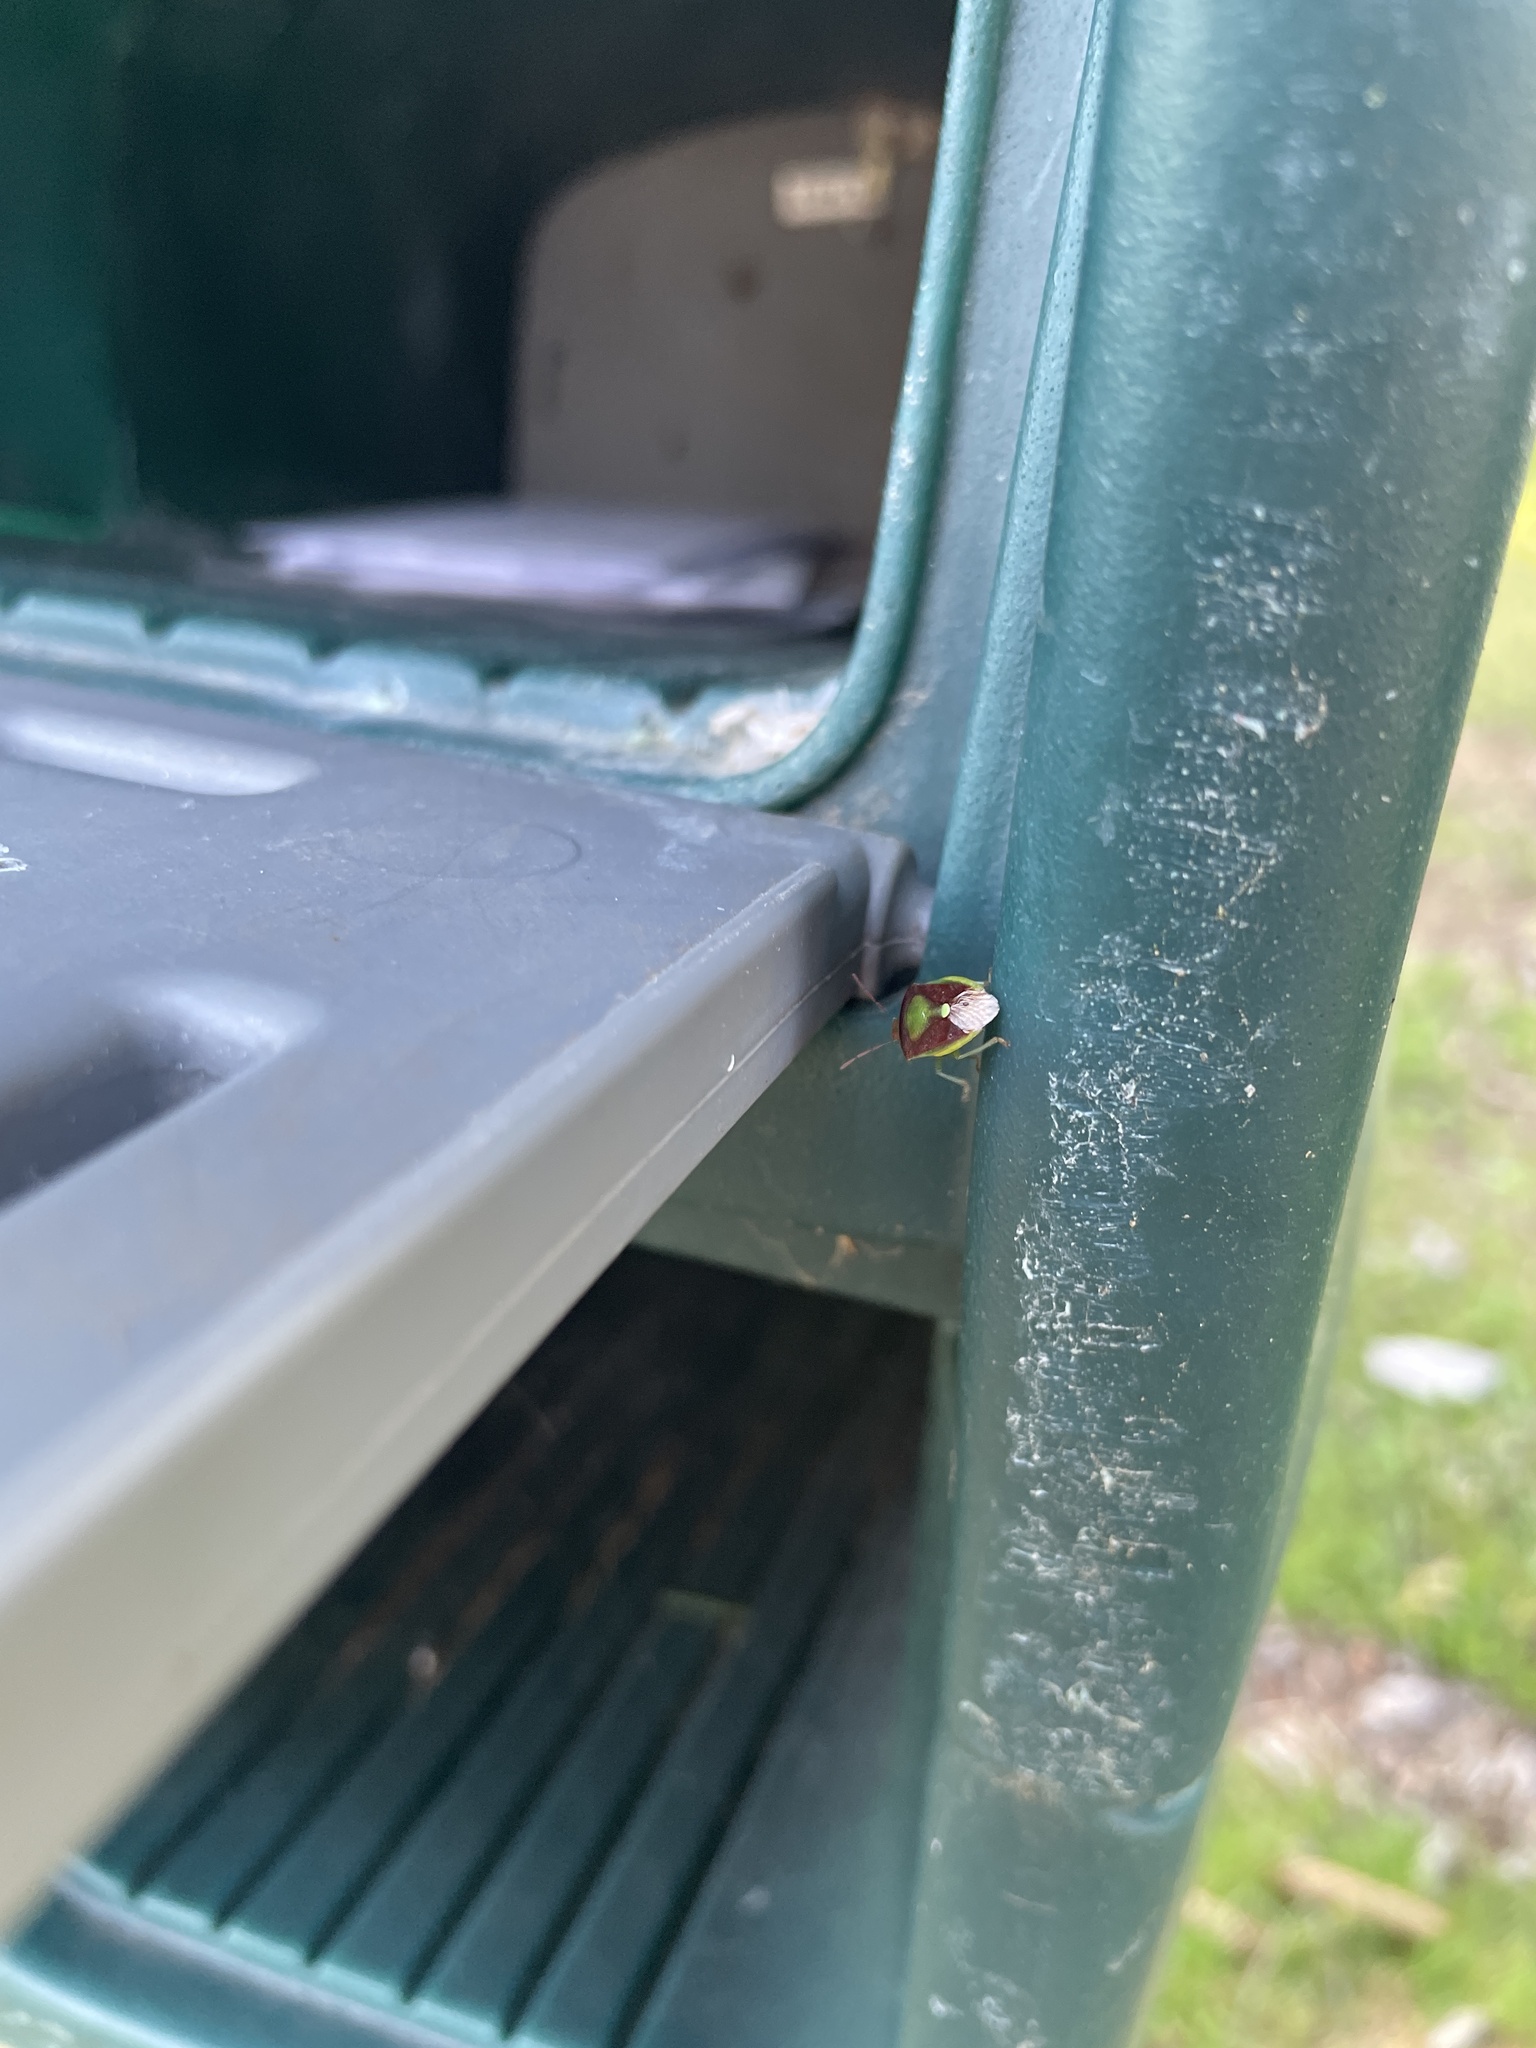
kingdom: Animalia
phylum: Arthropoda
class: Insecta
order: Hemiptera
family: Pentatomidae
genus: Banasa
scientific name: Banasa dimidiata
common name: Green burgundy stink bug
